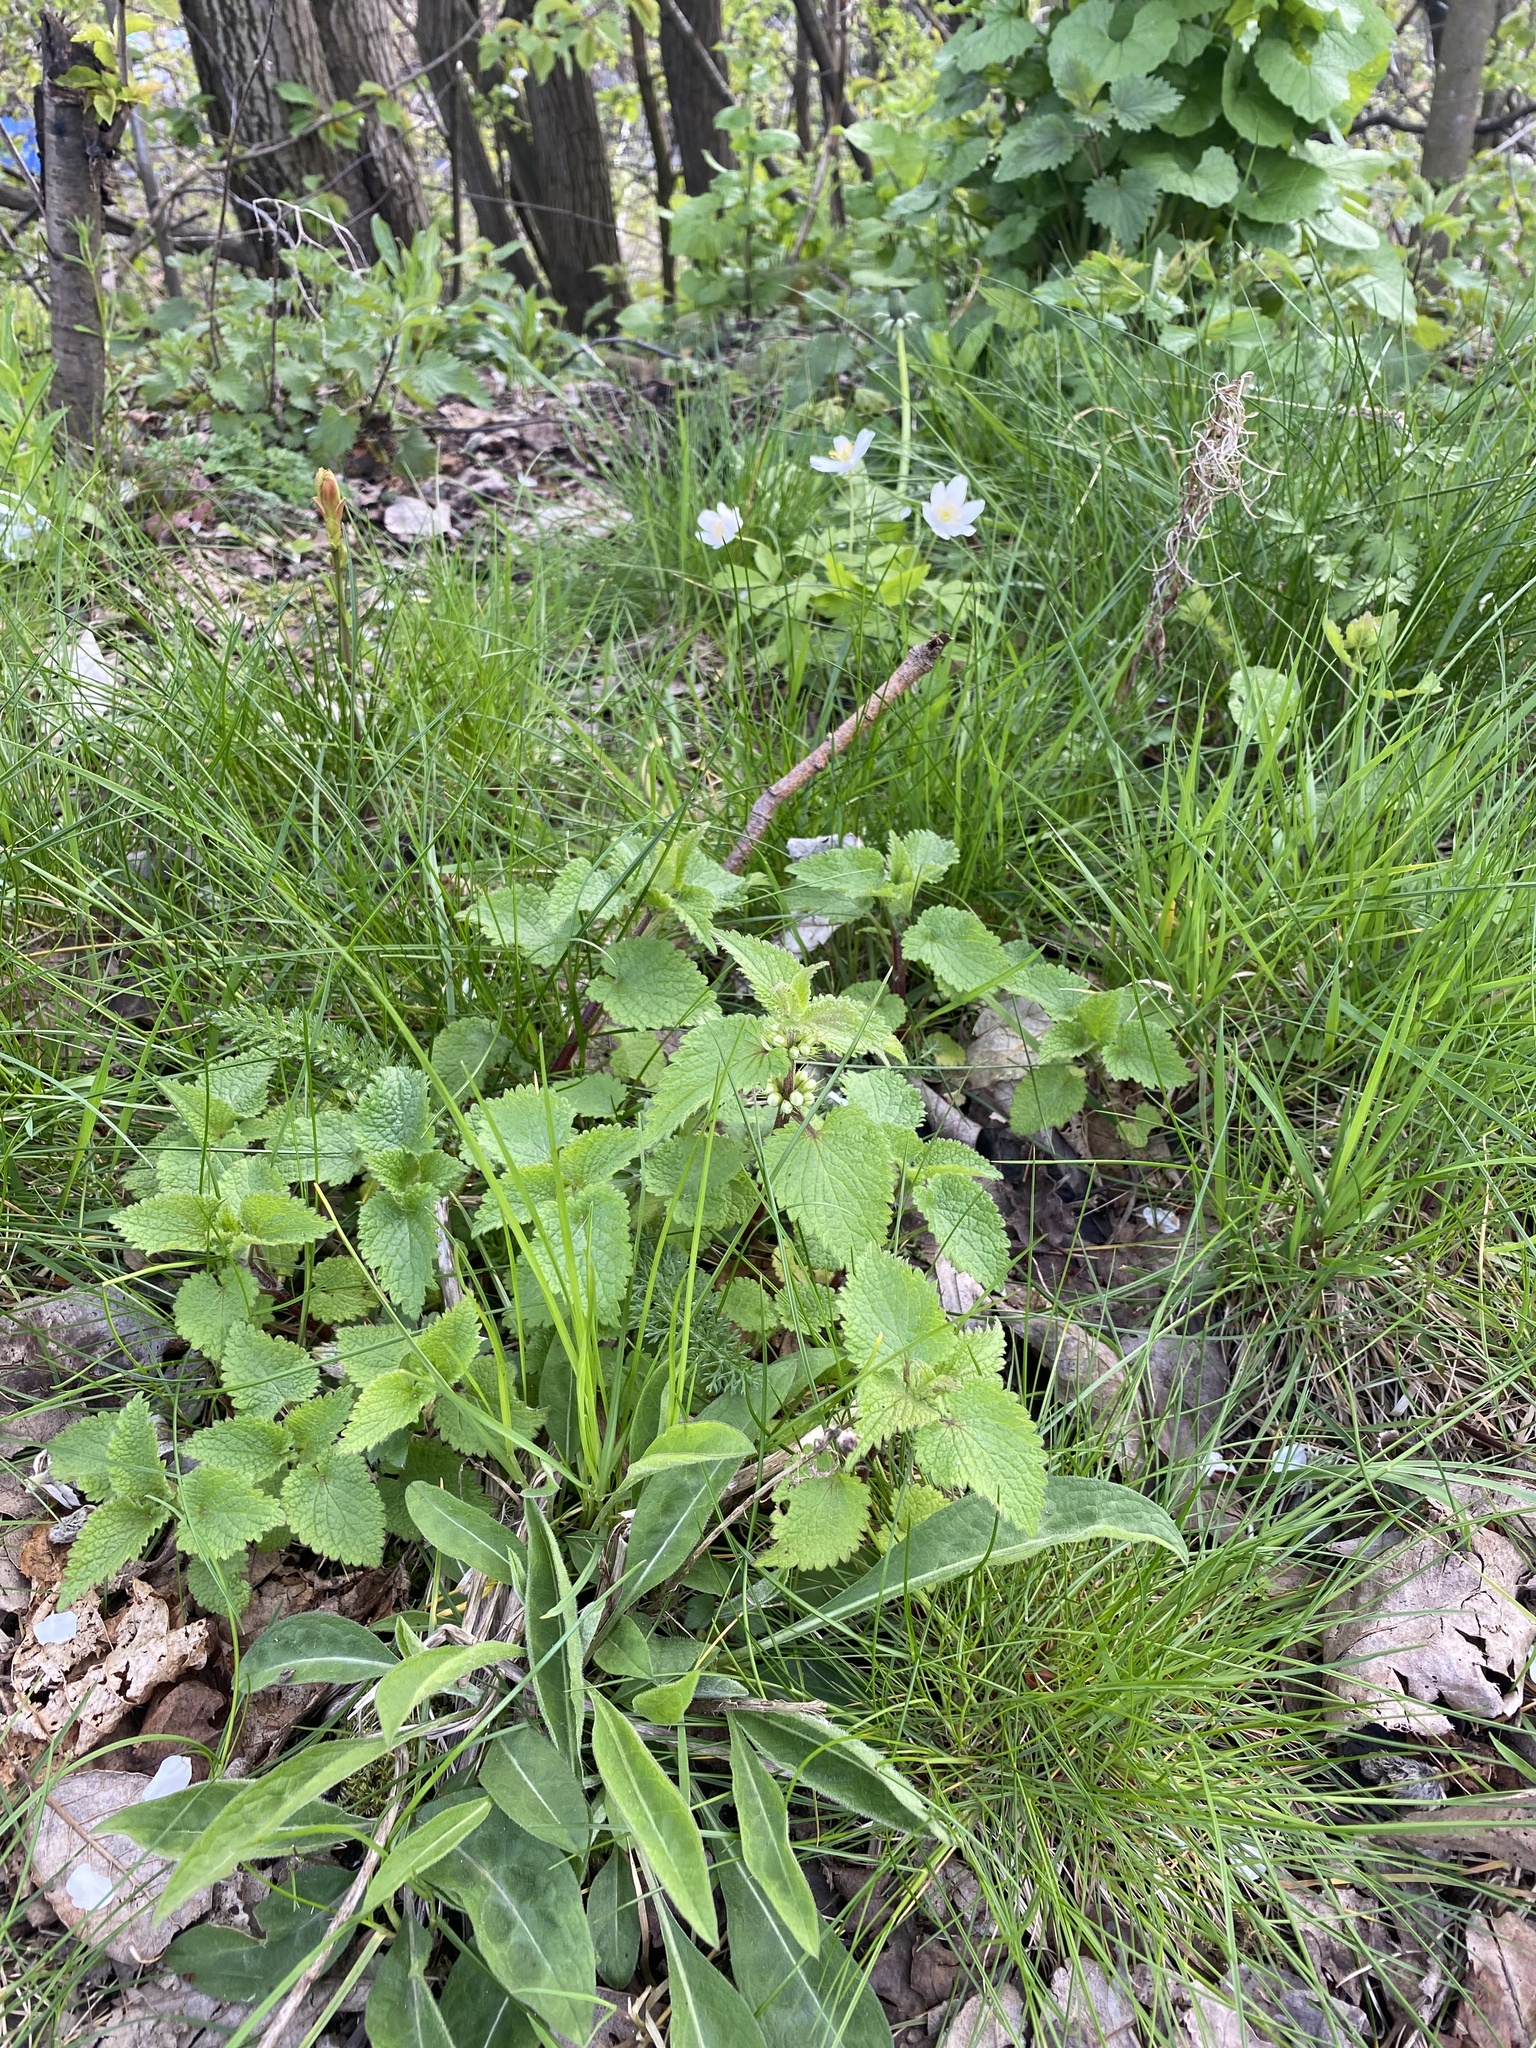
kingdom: Plantae
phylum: Tracheophyta
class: Magnoliopsida
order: Lamiales
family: Lamiaceae
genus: Lamium
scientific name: Lamium album
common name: White dead-nettle
